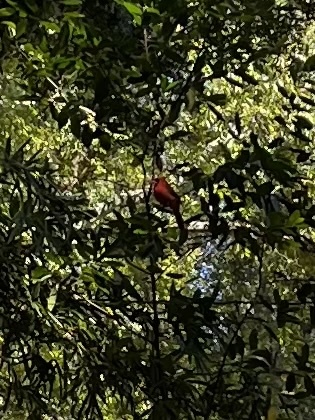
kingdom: Animalia
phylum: Chordata
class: Aves
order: Passeriformes
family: Cardinalidae
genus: Cardinalis
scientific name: Cardinalis cardinalis
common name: Northern cardinal
